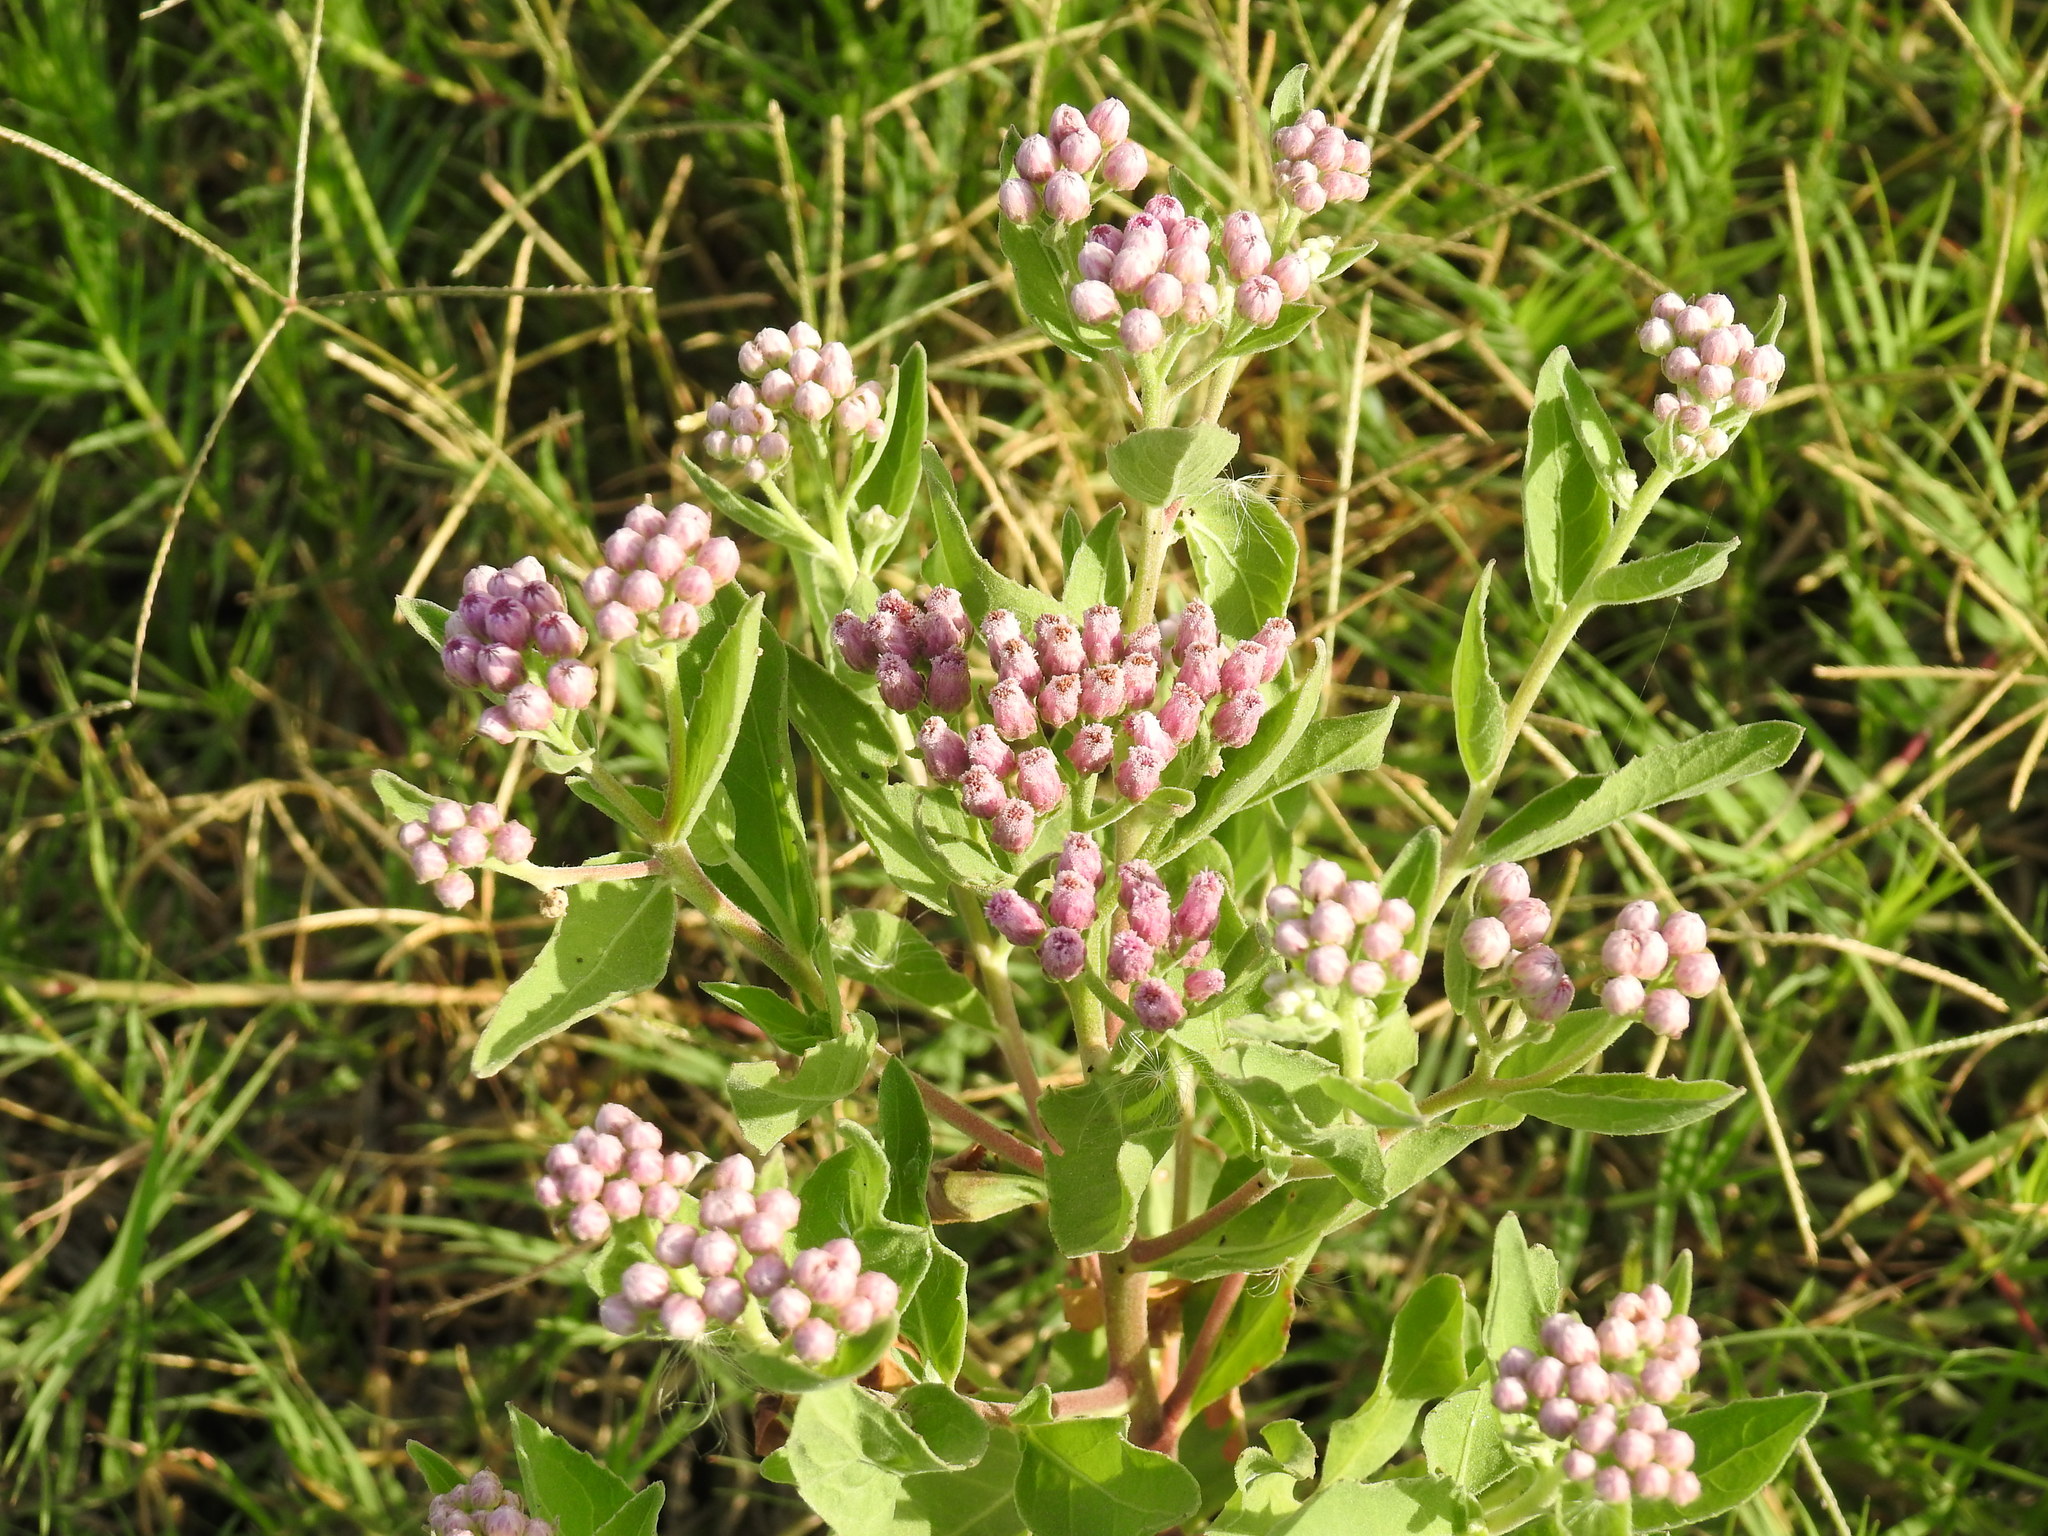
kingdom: Plantae
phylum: Tracheophyta
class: Magnoliopsida
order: Asterales
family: Asteraceae
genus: Pluchea
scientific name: Pluchea odorata
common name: Saltmarsh fleabane
